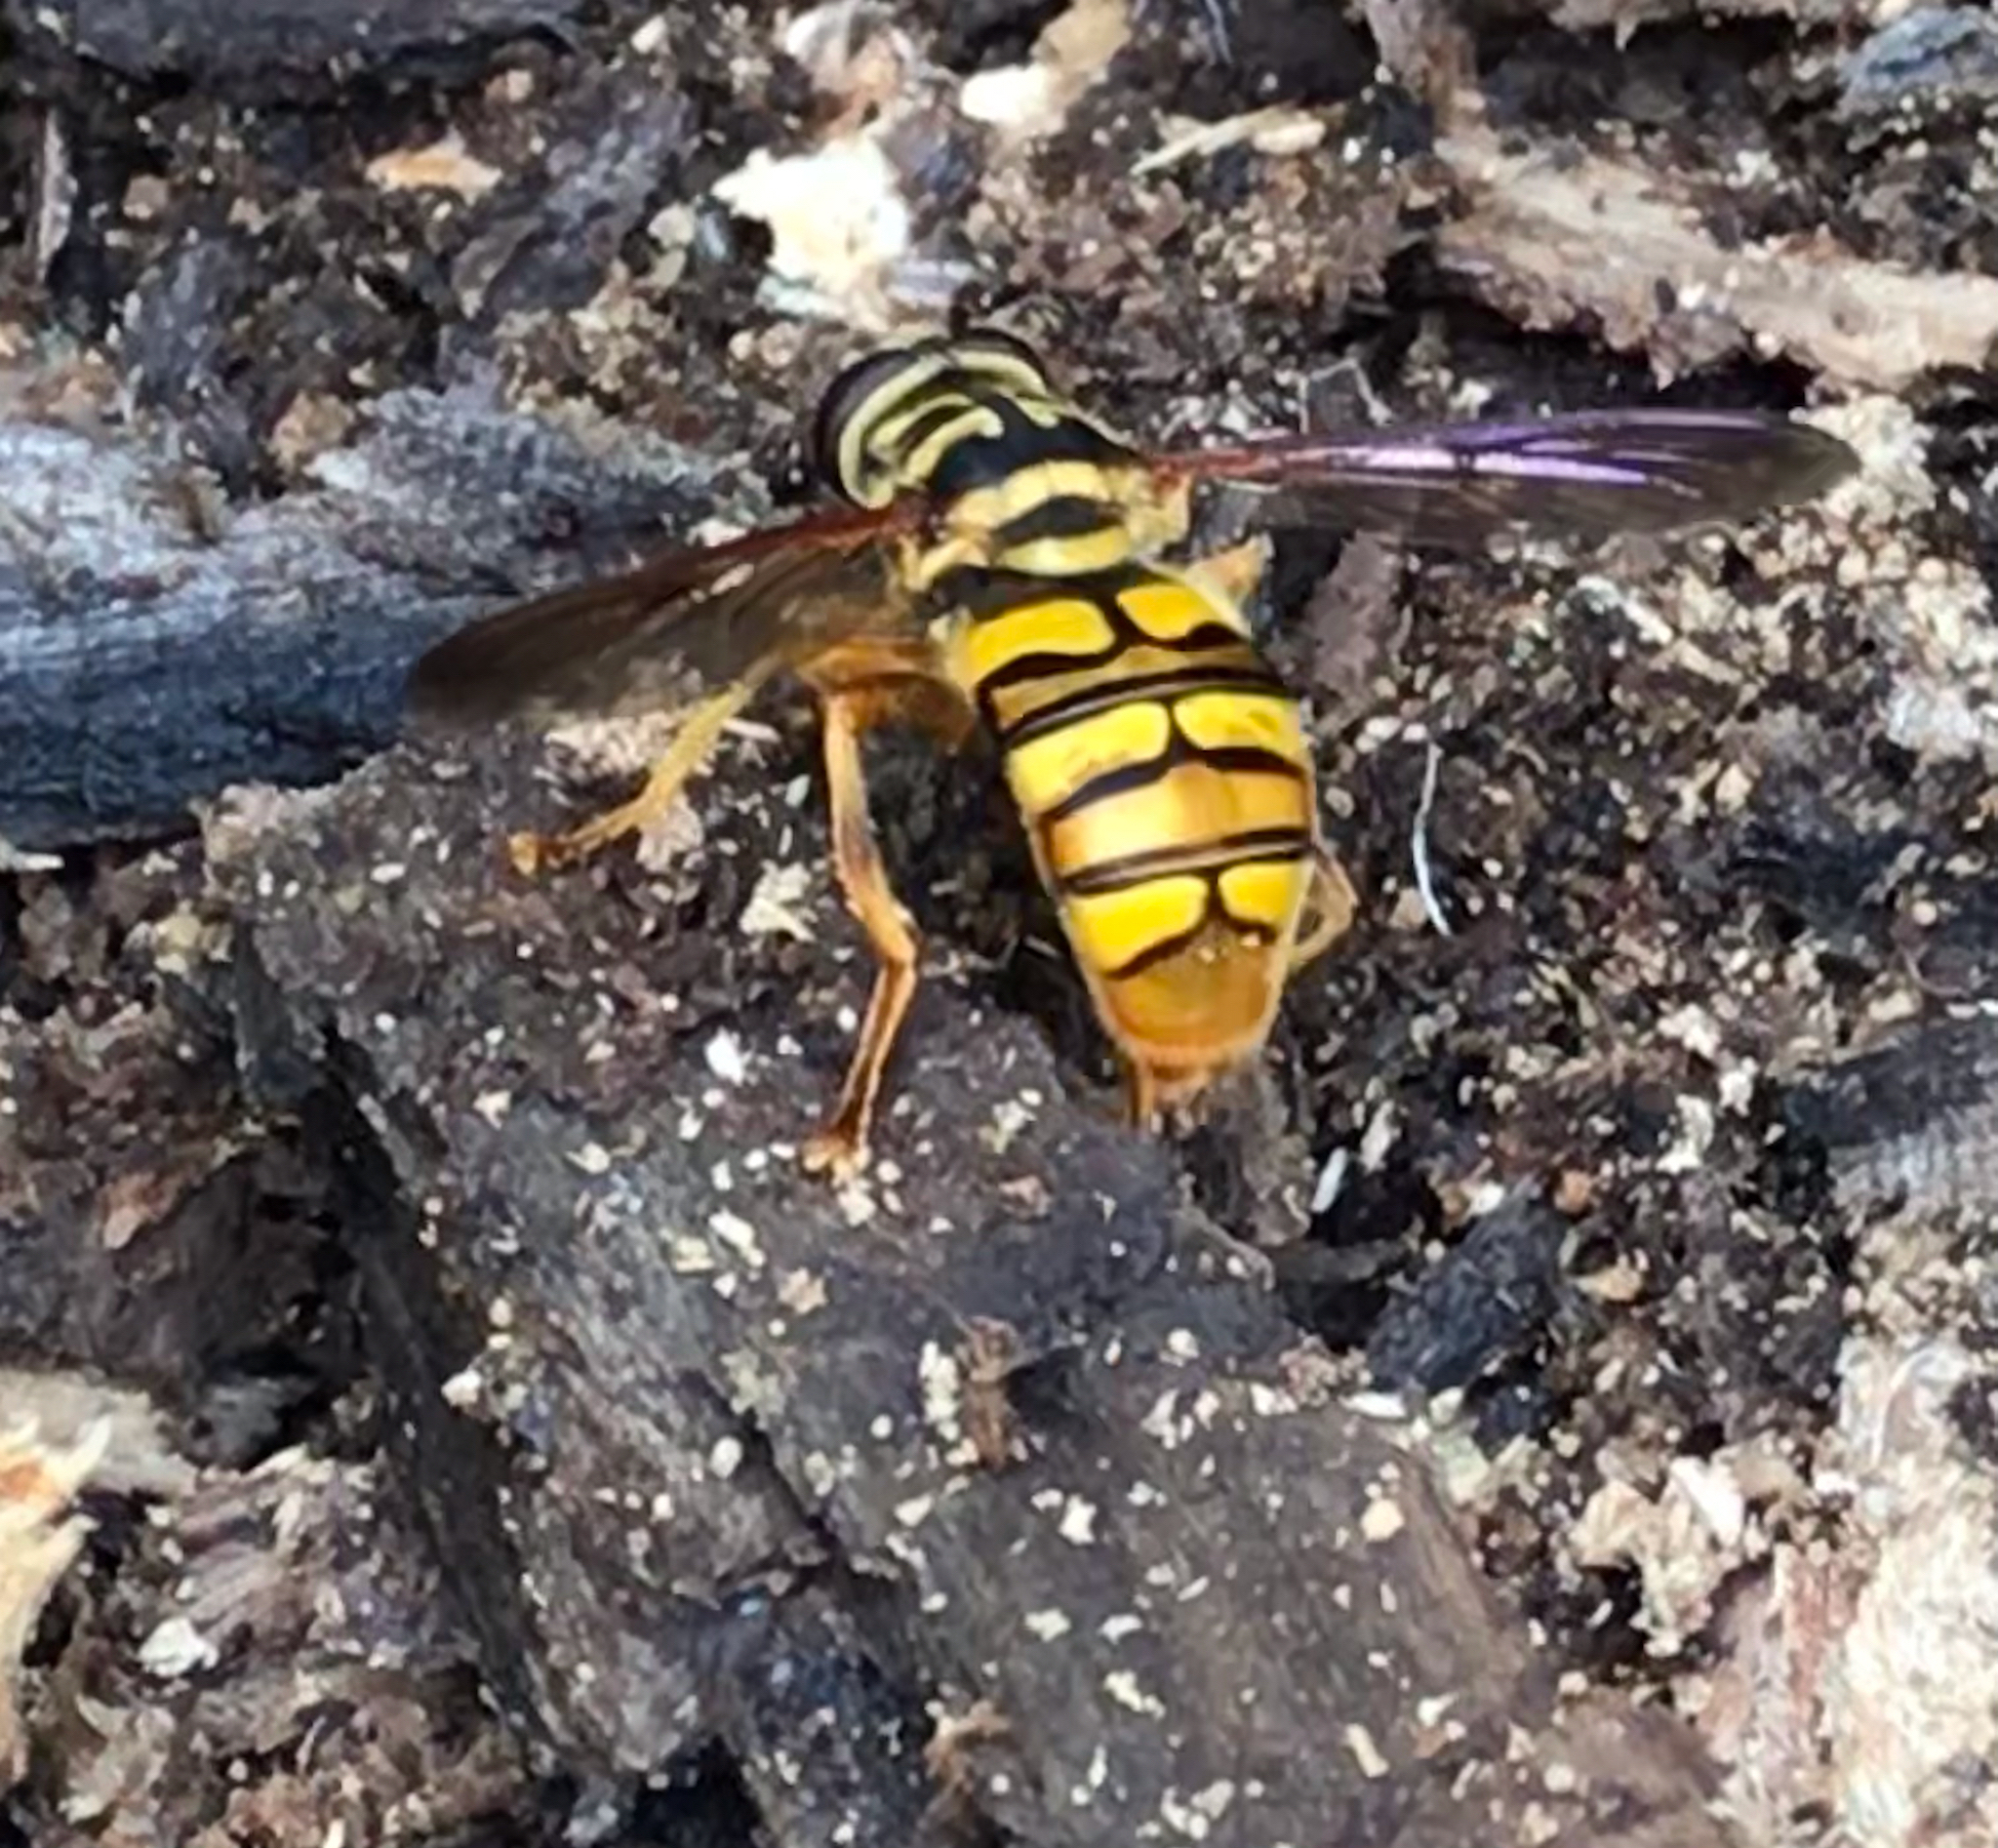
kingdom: Animalia
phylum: Arthropoda
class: Insecta
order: Diptera
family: Syrphidae
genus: Milesia
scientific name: Milesia virginiensis
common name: Virginia giant
